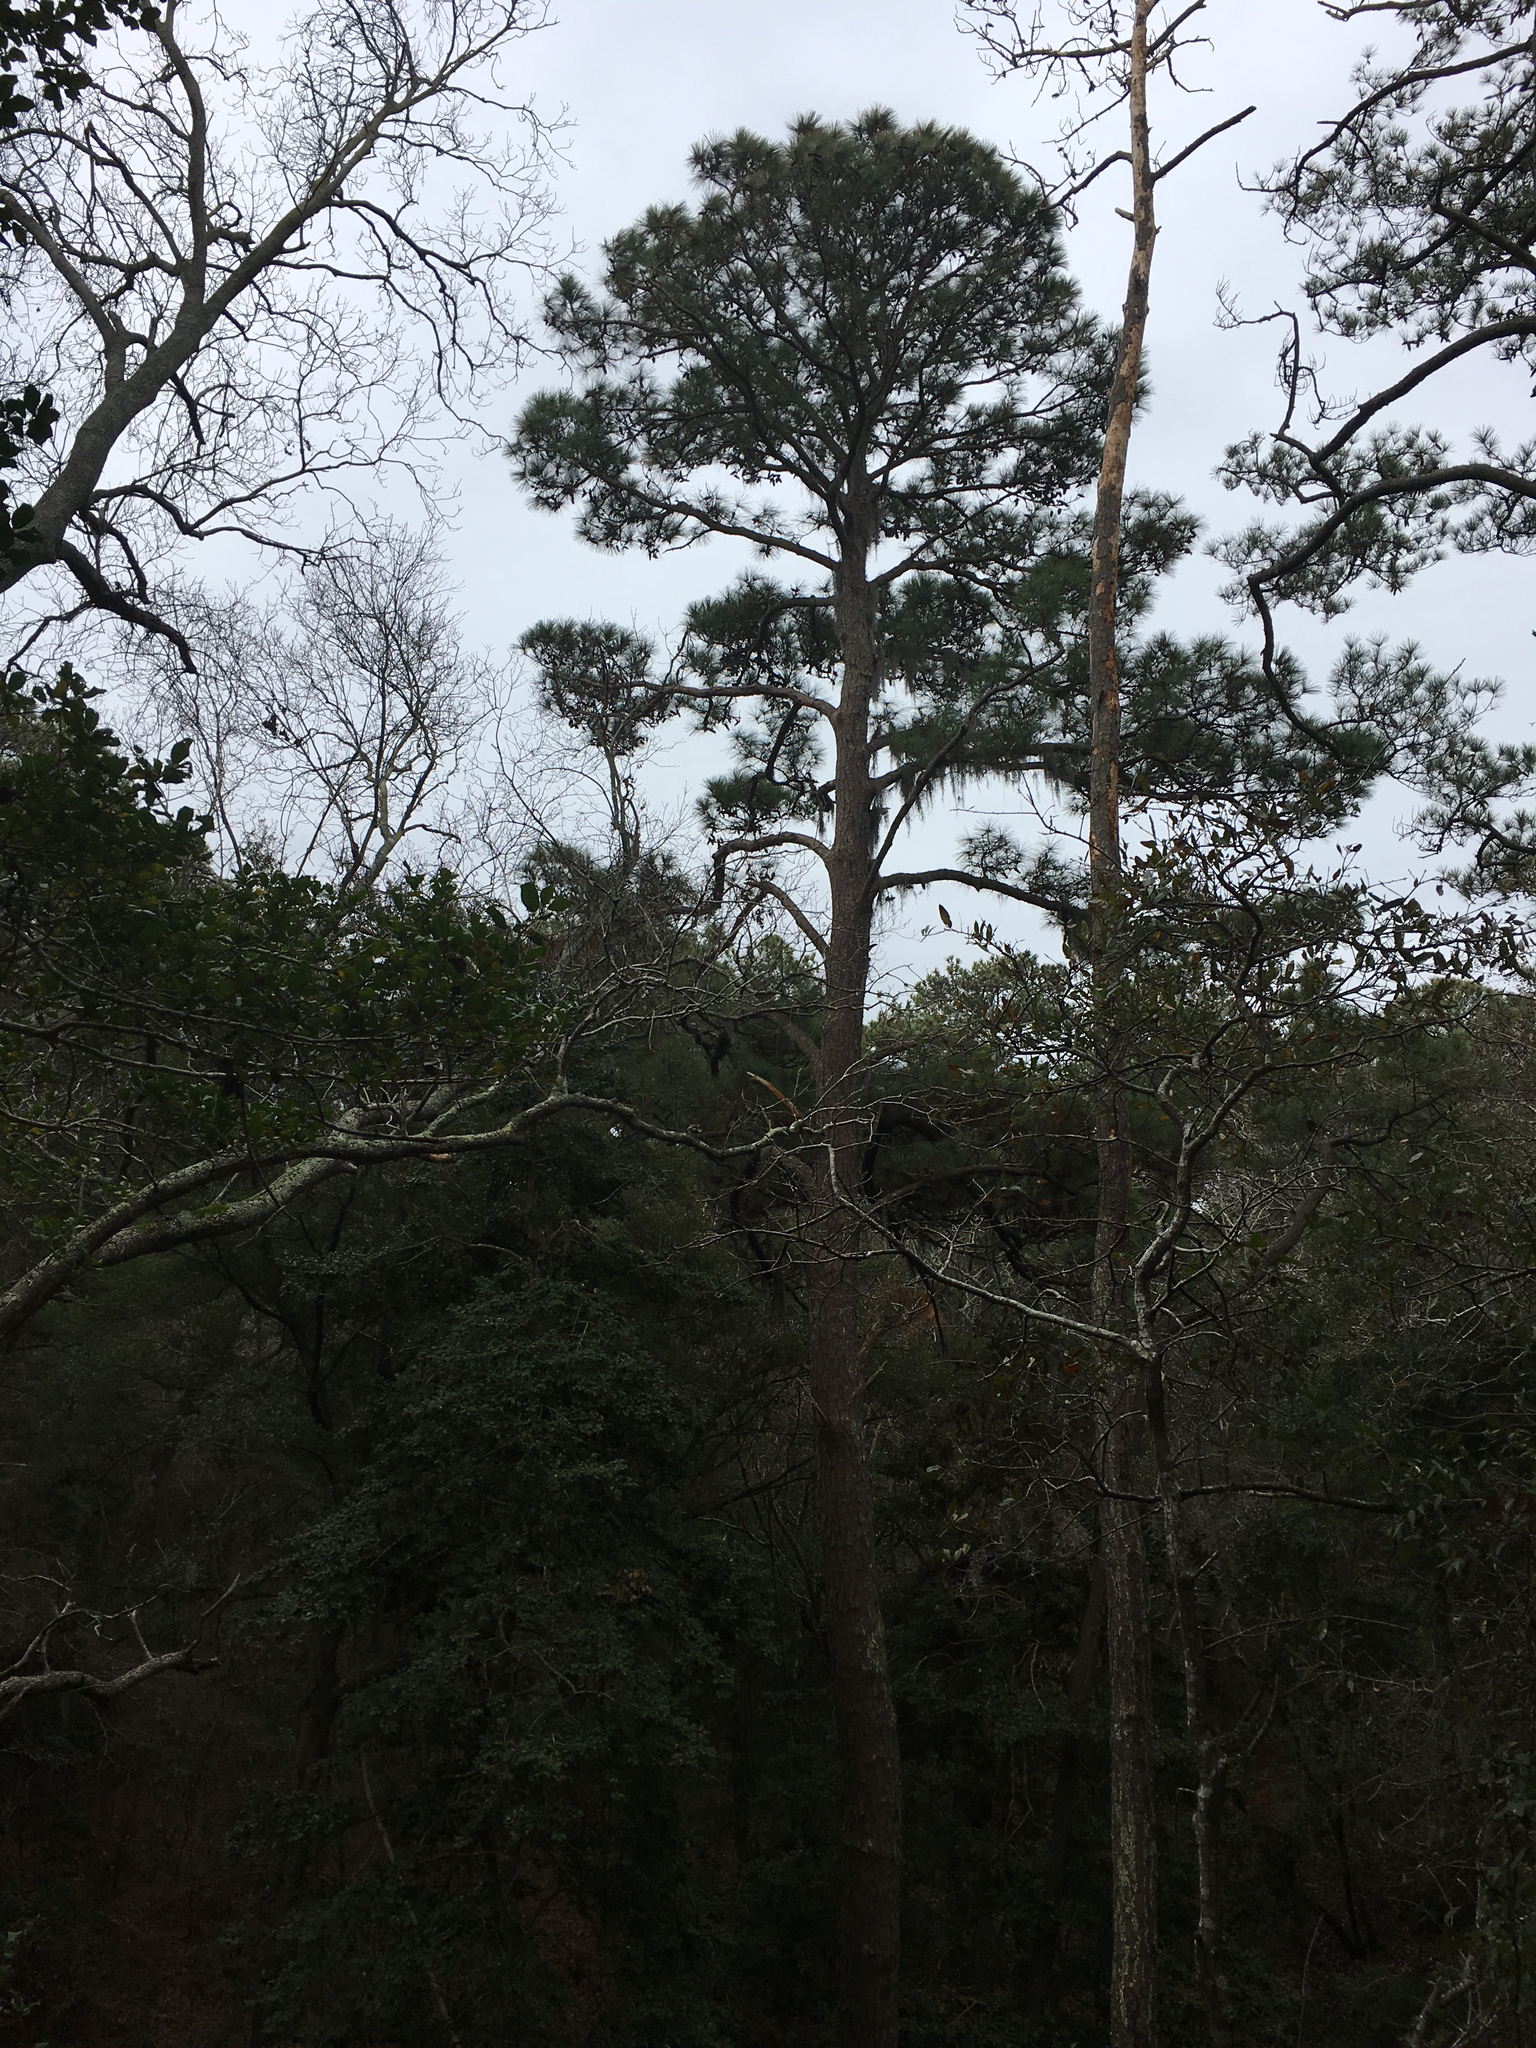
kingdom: Plantae
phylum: Tracheophyta
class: Pinopsida
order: Pinales
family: Pinaceae
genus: Pinus
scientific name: Pinus taeda
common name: Loblolly pine
